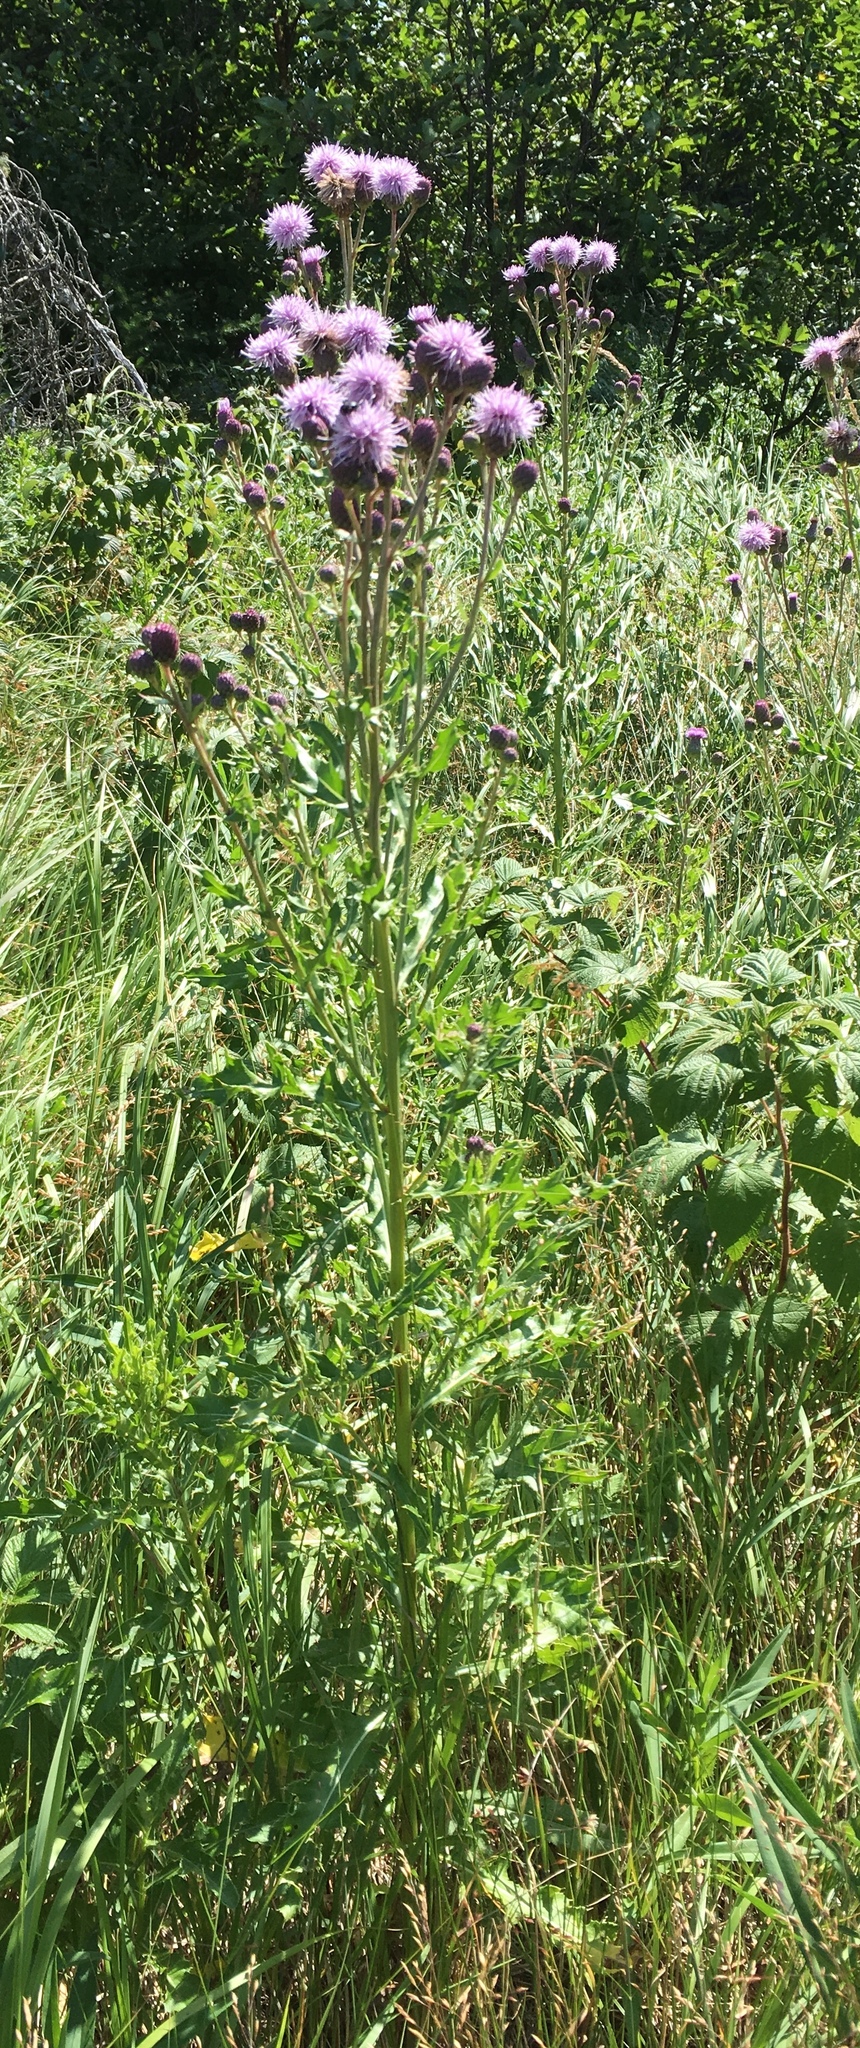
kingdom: Plantae
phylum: Tracheophyta
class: Magnoliopsida
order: Asterales
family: Asteraceae
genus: Cirsium
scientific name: Cirsium arvense
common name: Creeping thistle
